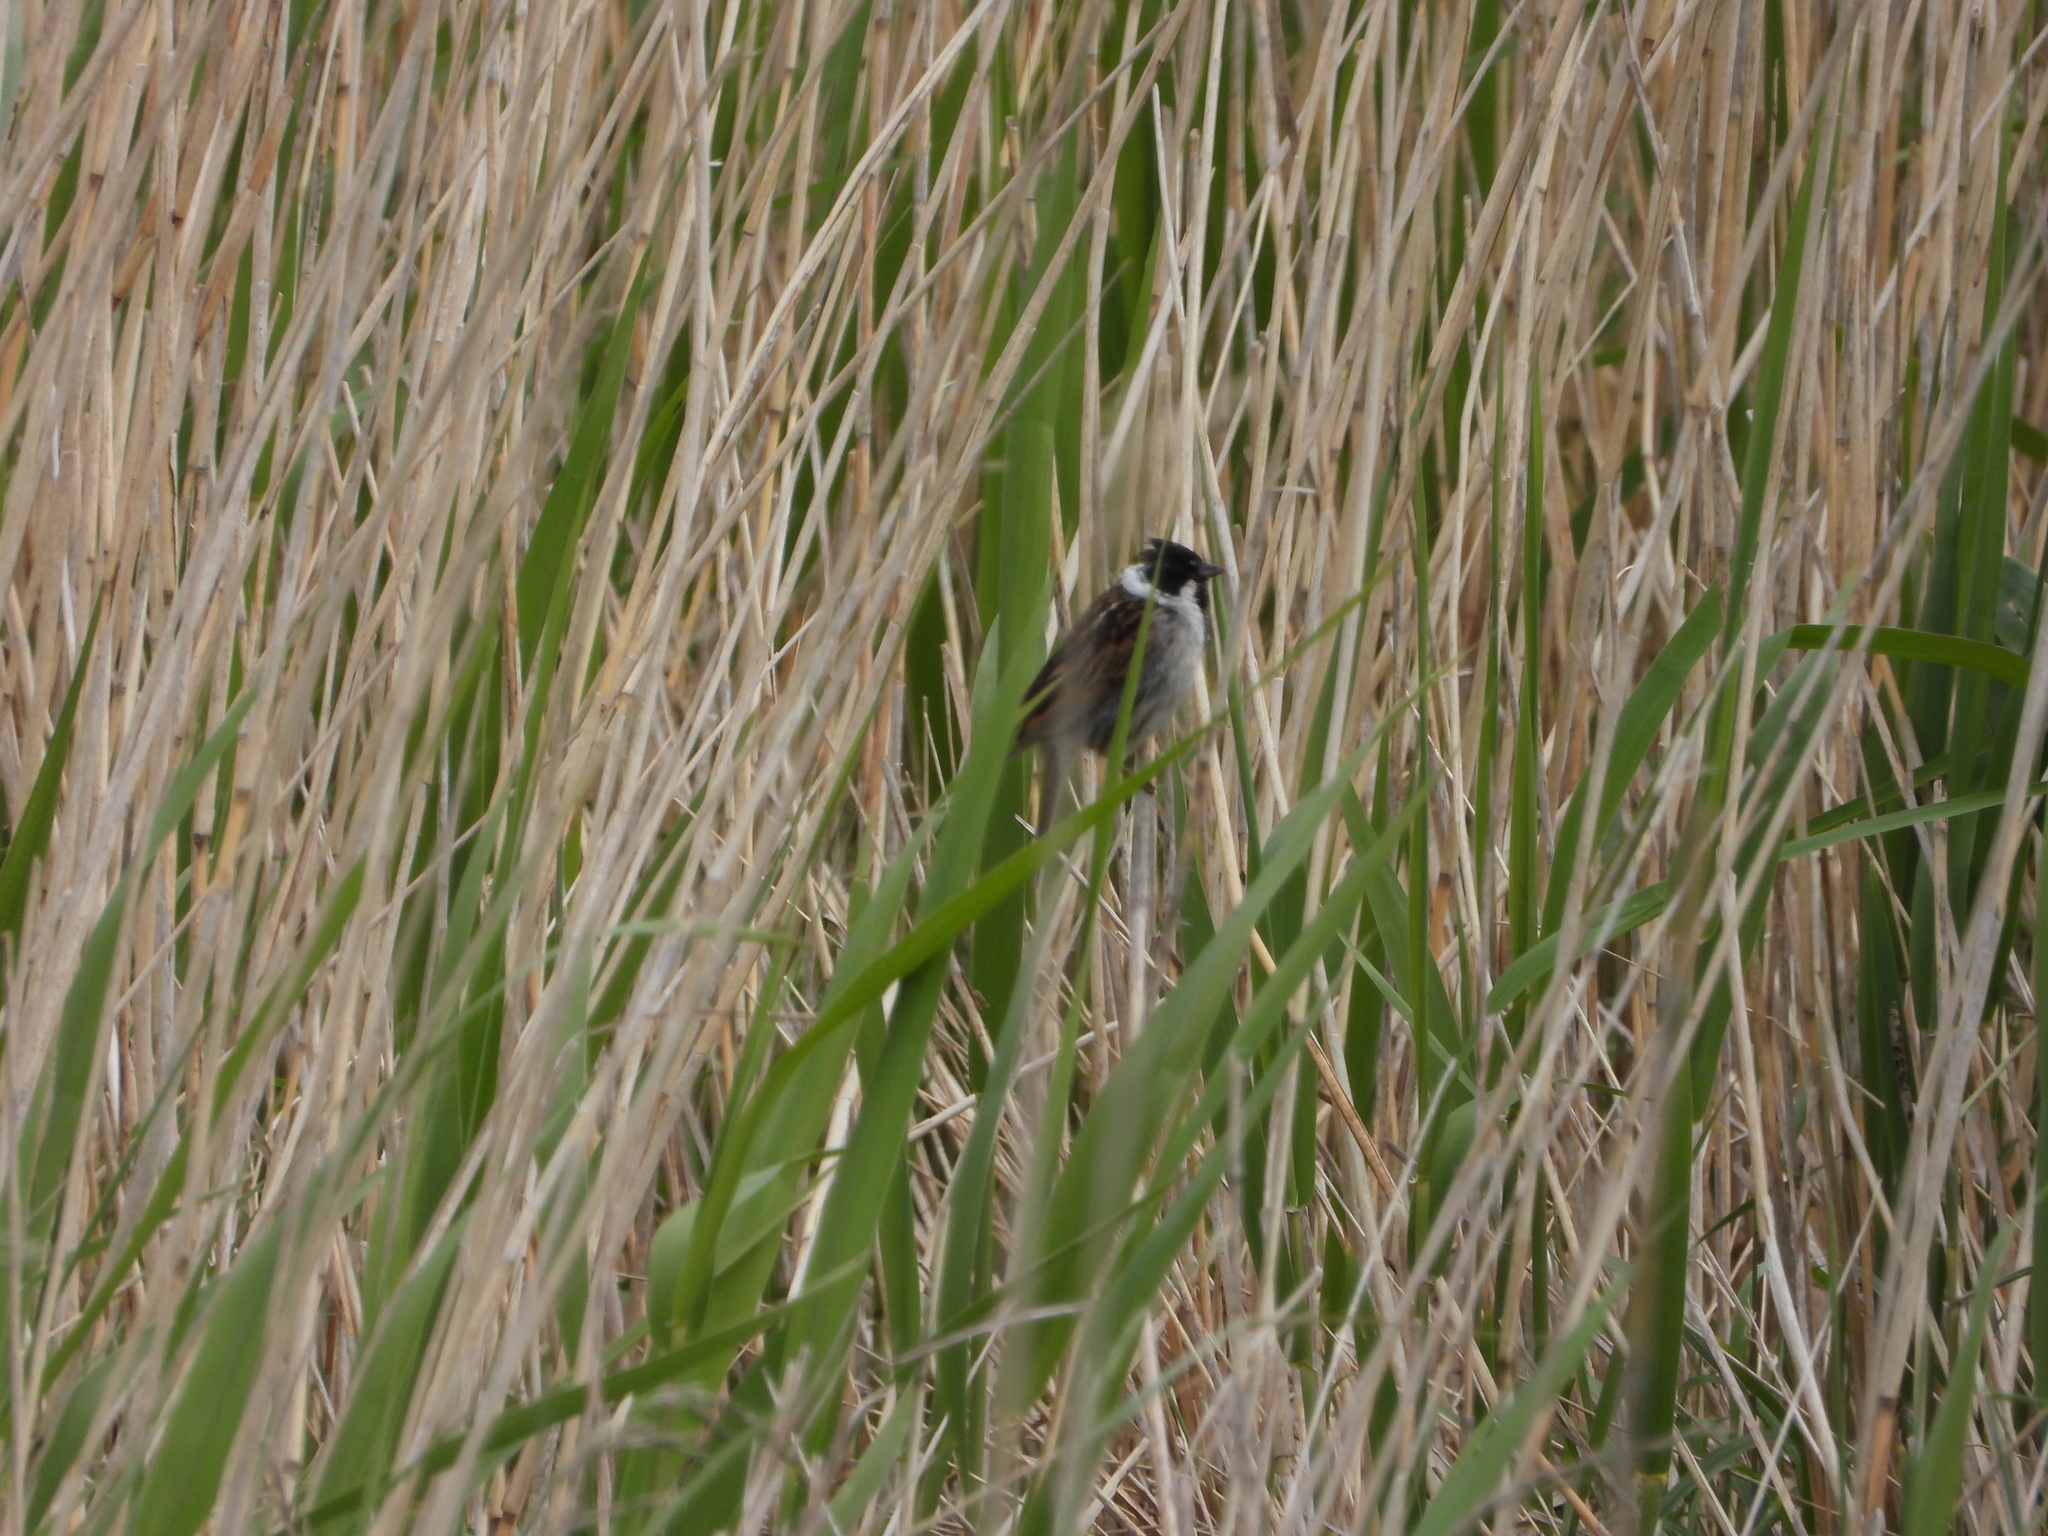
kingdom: Animalia
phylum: Chordata
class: Aves
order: Passeriformes
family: Emberizidae
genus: Emberiza
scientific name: Emberiza schoeniclus
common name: Reed bunting
